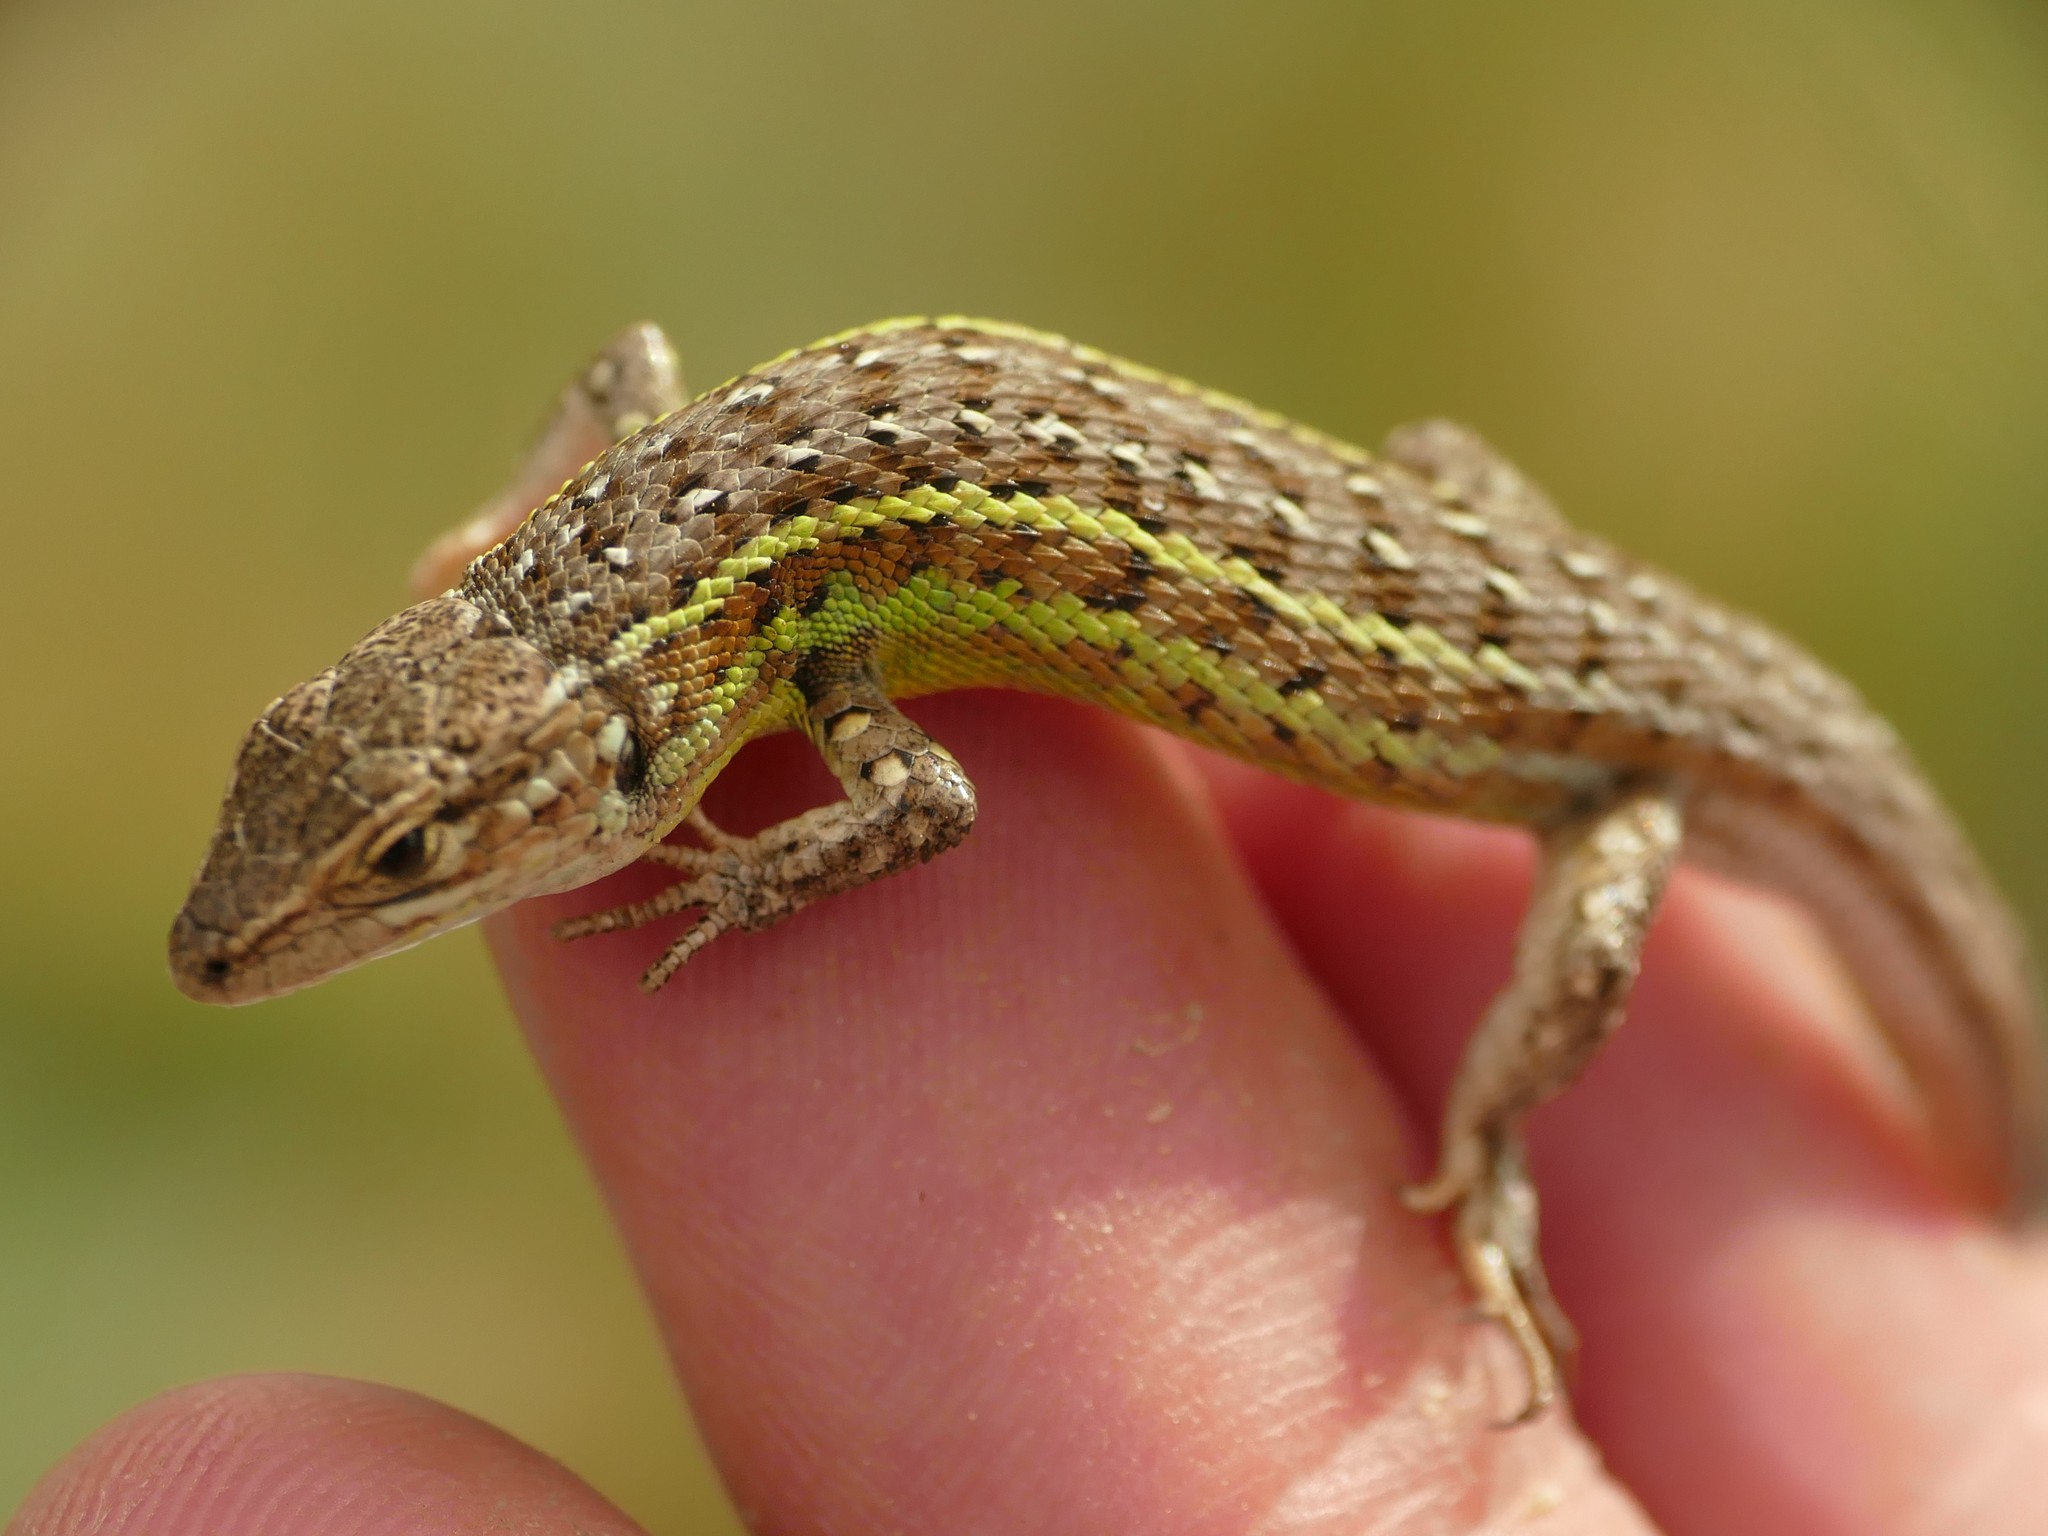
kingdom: Animalia
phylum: Chordata
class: Squamata
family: Lacertidae
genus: Psammodromus
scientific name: Psammodromus hispanicus
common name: Spanish psammodromus
